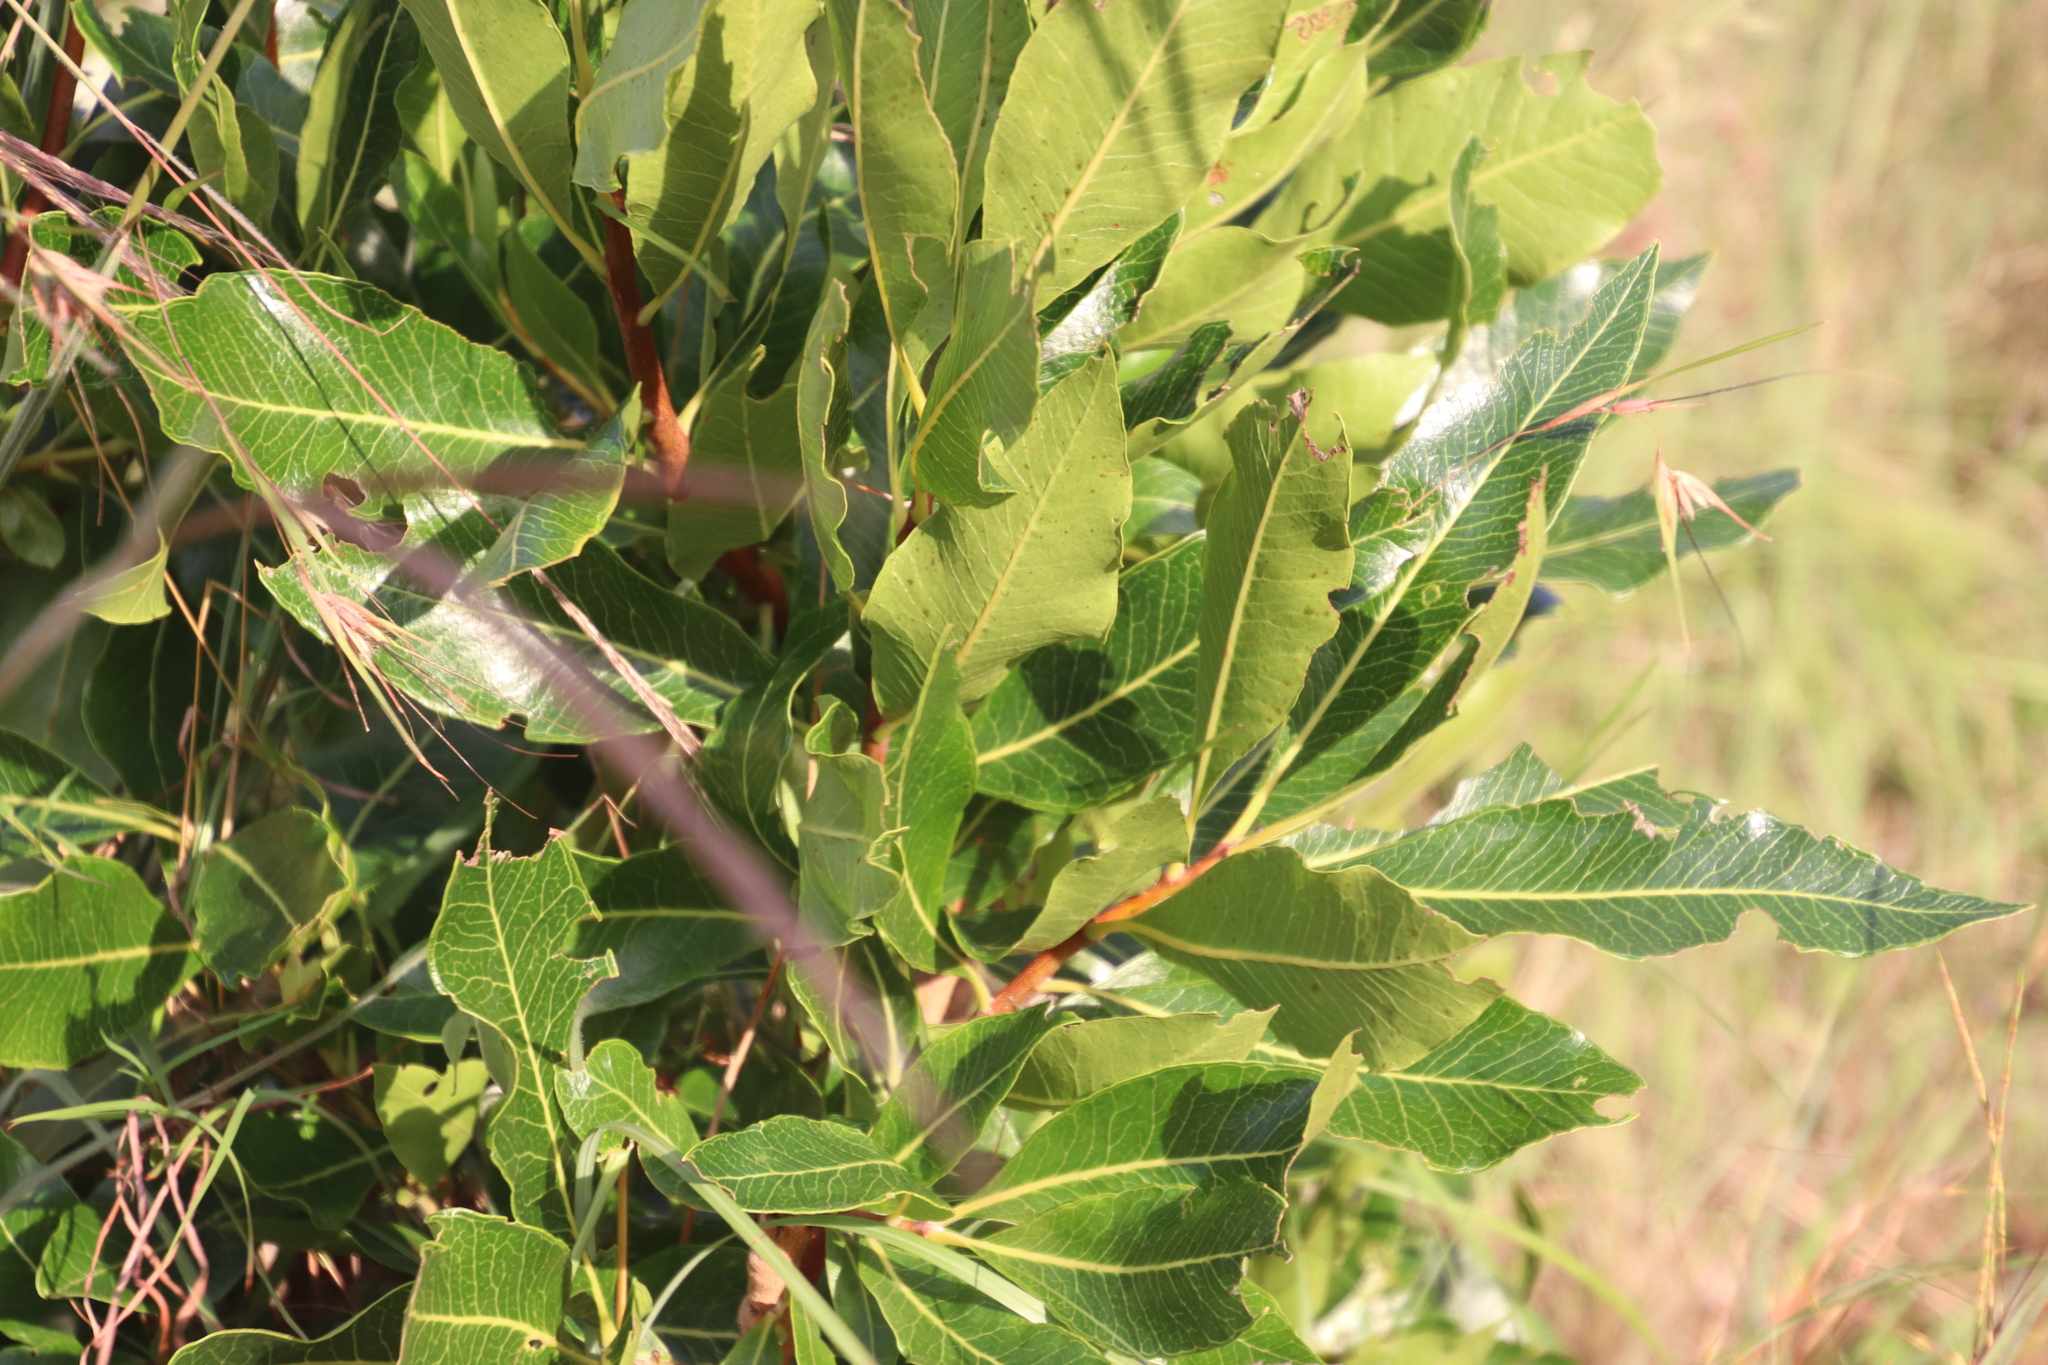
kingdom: Plantae
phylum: Tracheophyta
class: Magnoliopsida
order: Proteales
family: Proteaceae
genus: Faurea
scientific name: Faurea rochetiana
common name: Broad-leaved beech
